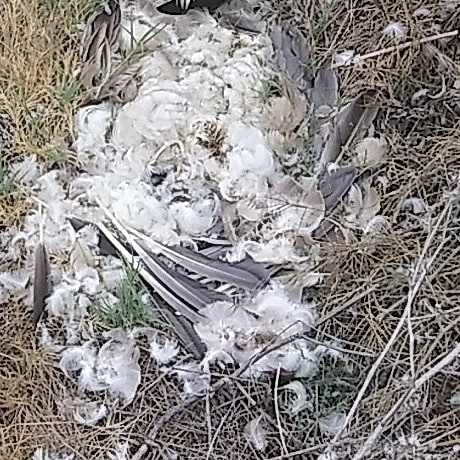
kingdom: Animalia
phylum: Chordata
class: Aves
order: Anseriformes
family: Anatidae
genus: Branta
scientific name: Branta canadensis
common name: Canada goose
